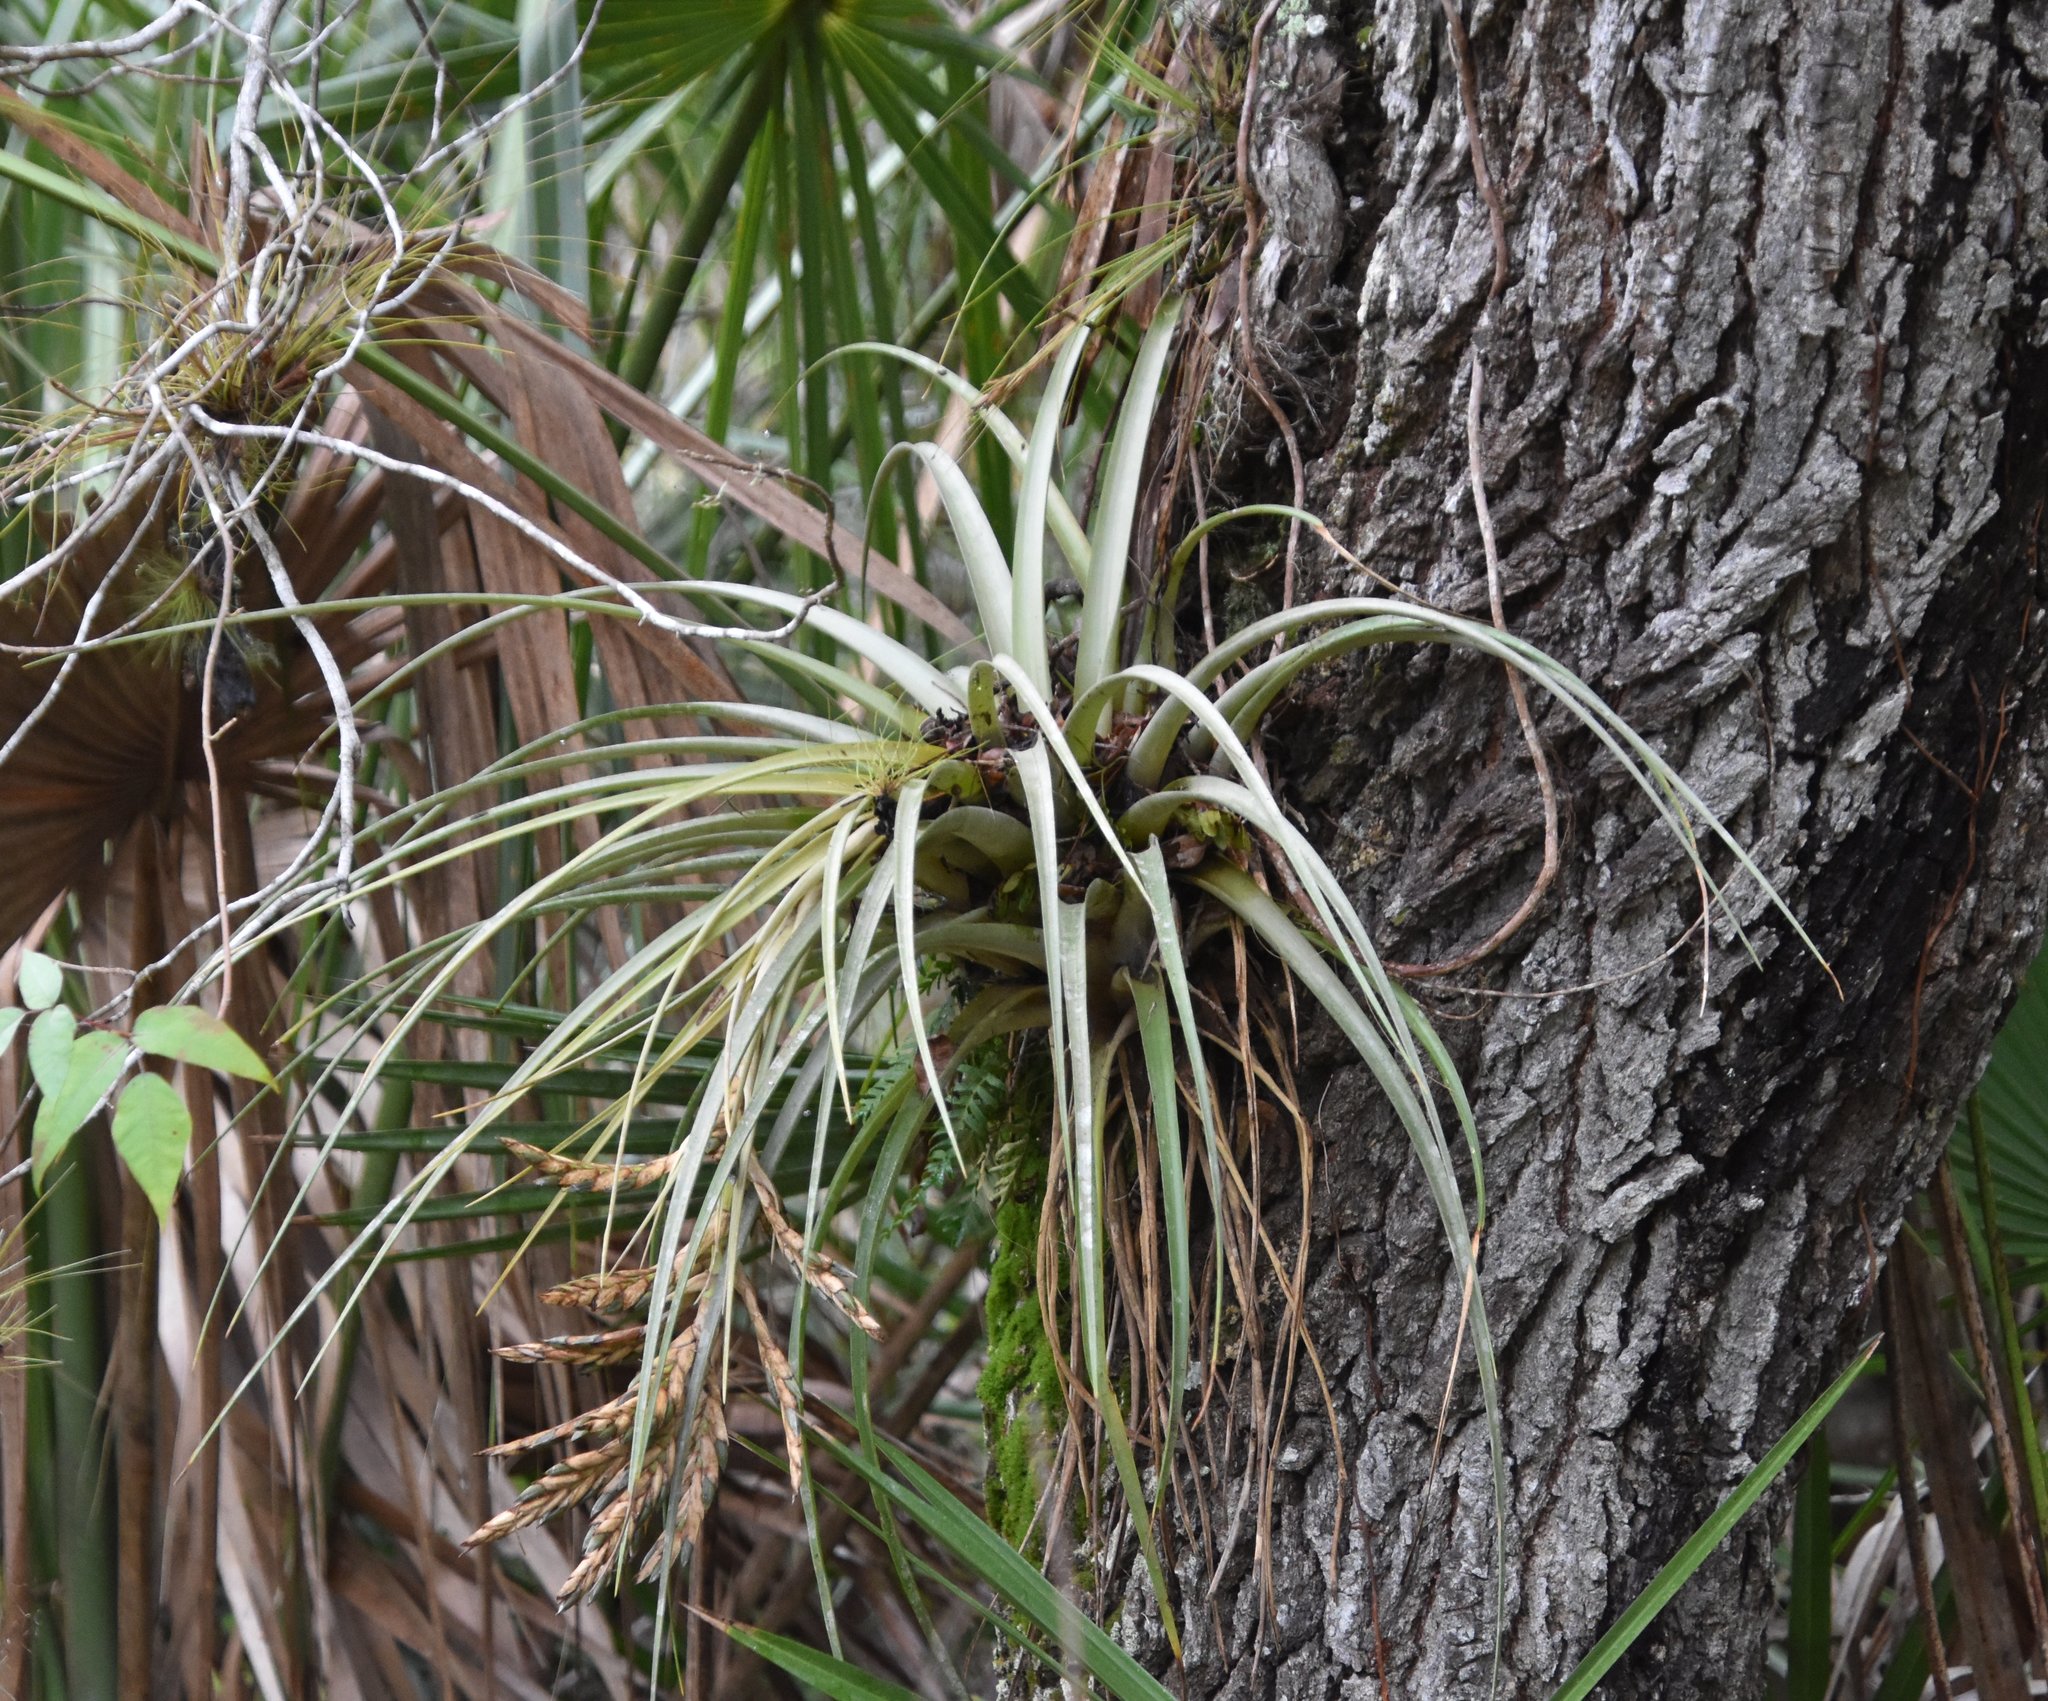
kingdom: Plantae
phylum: Tracheophyta
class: Liliopsida
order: Poales
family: Bromeliaceae
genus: Tillandsia
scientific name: Tillandsia fasciculata
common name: Giant airplant
